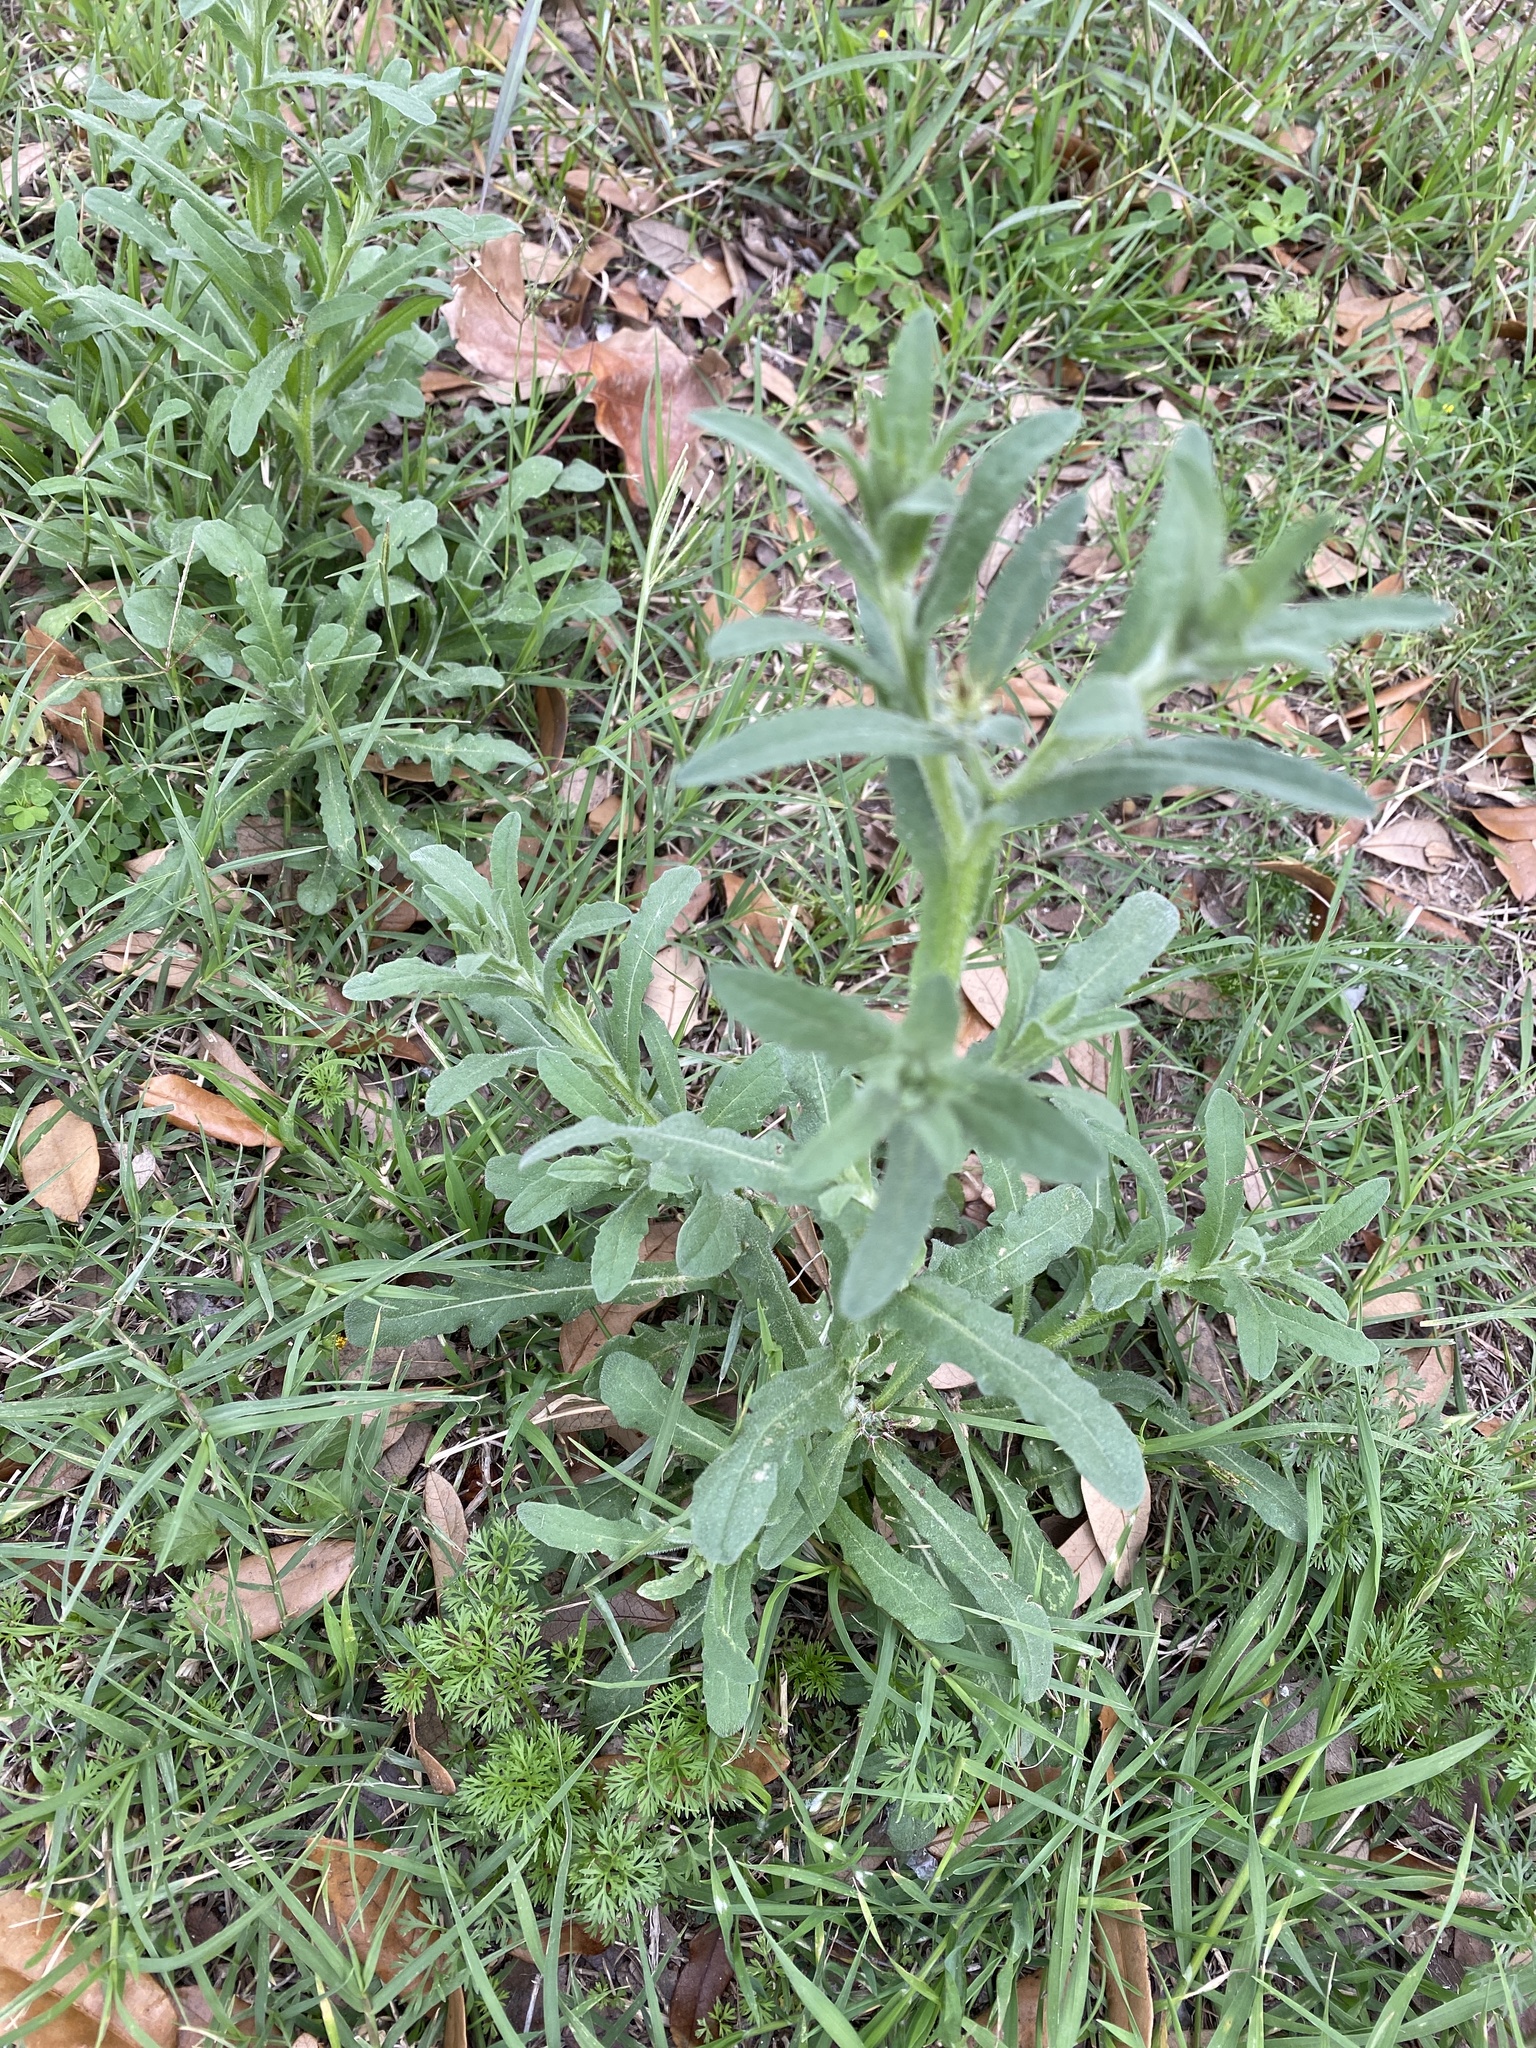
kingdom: Plantae
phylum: Tracheophyta
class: Magnoliopsida
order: Asterales
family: Asteraceae
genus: Centaurea
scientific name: Centaurea melitensis
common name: Maltese star-thistle
